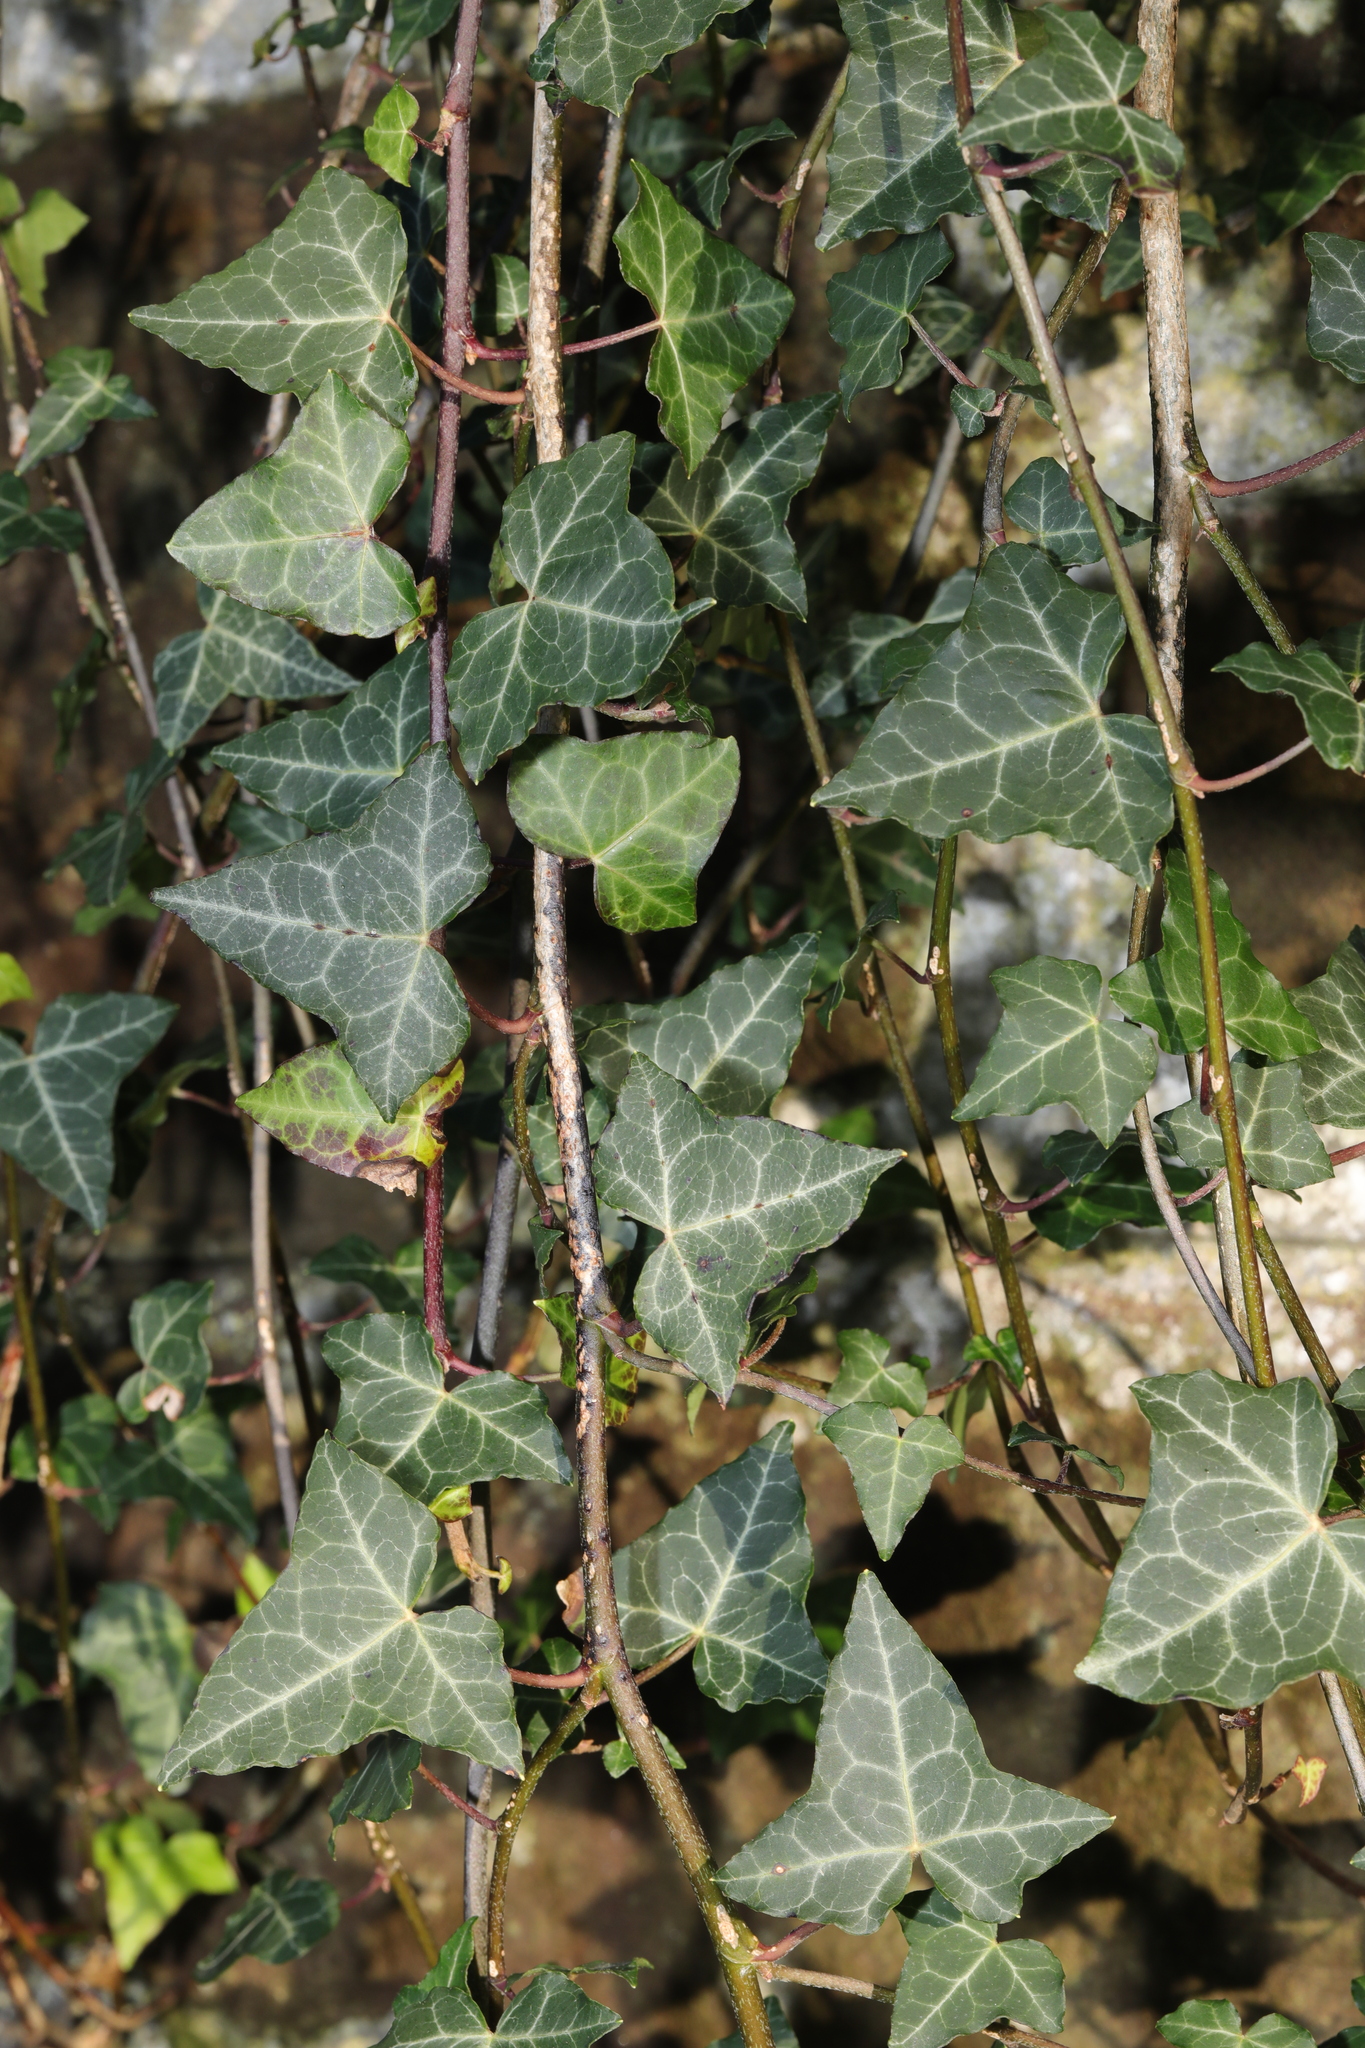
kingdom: Plantae
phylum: Tracheophyta
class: Magnoliopsida
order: Apiales
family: Araliaceae
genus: Hedera
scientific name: Hedera helix
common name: Ivy
